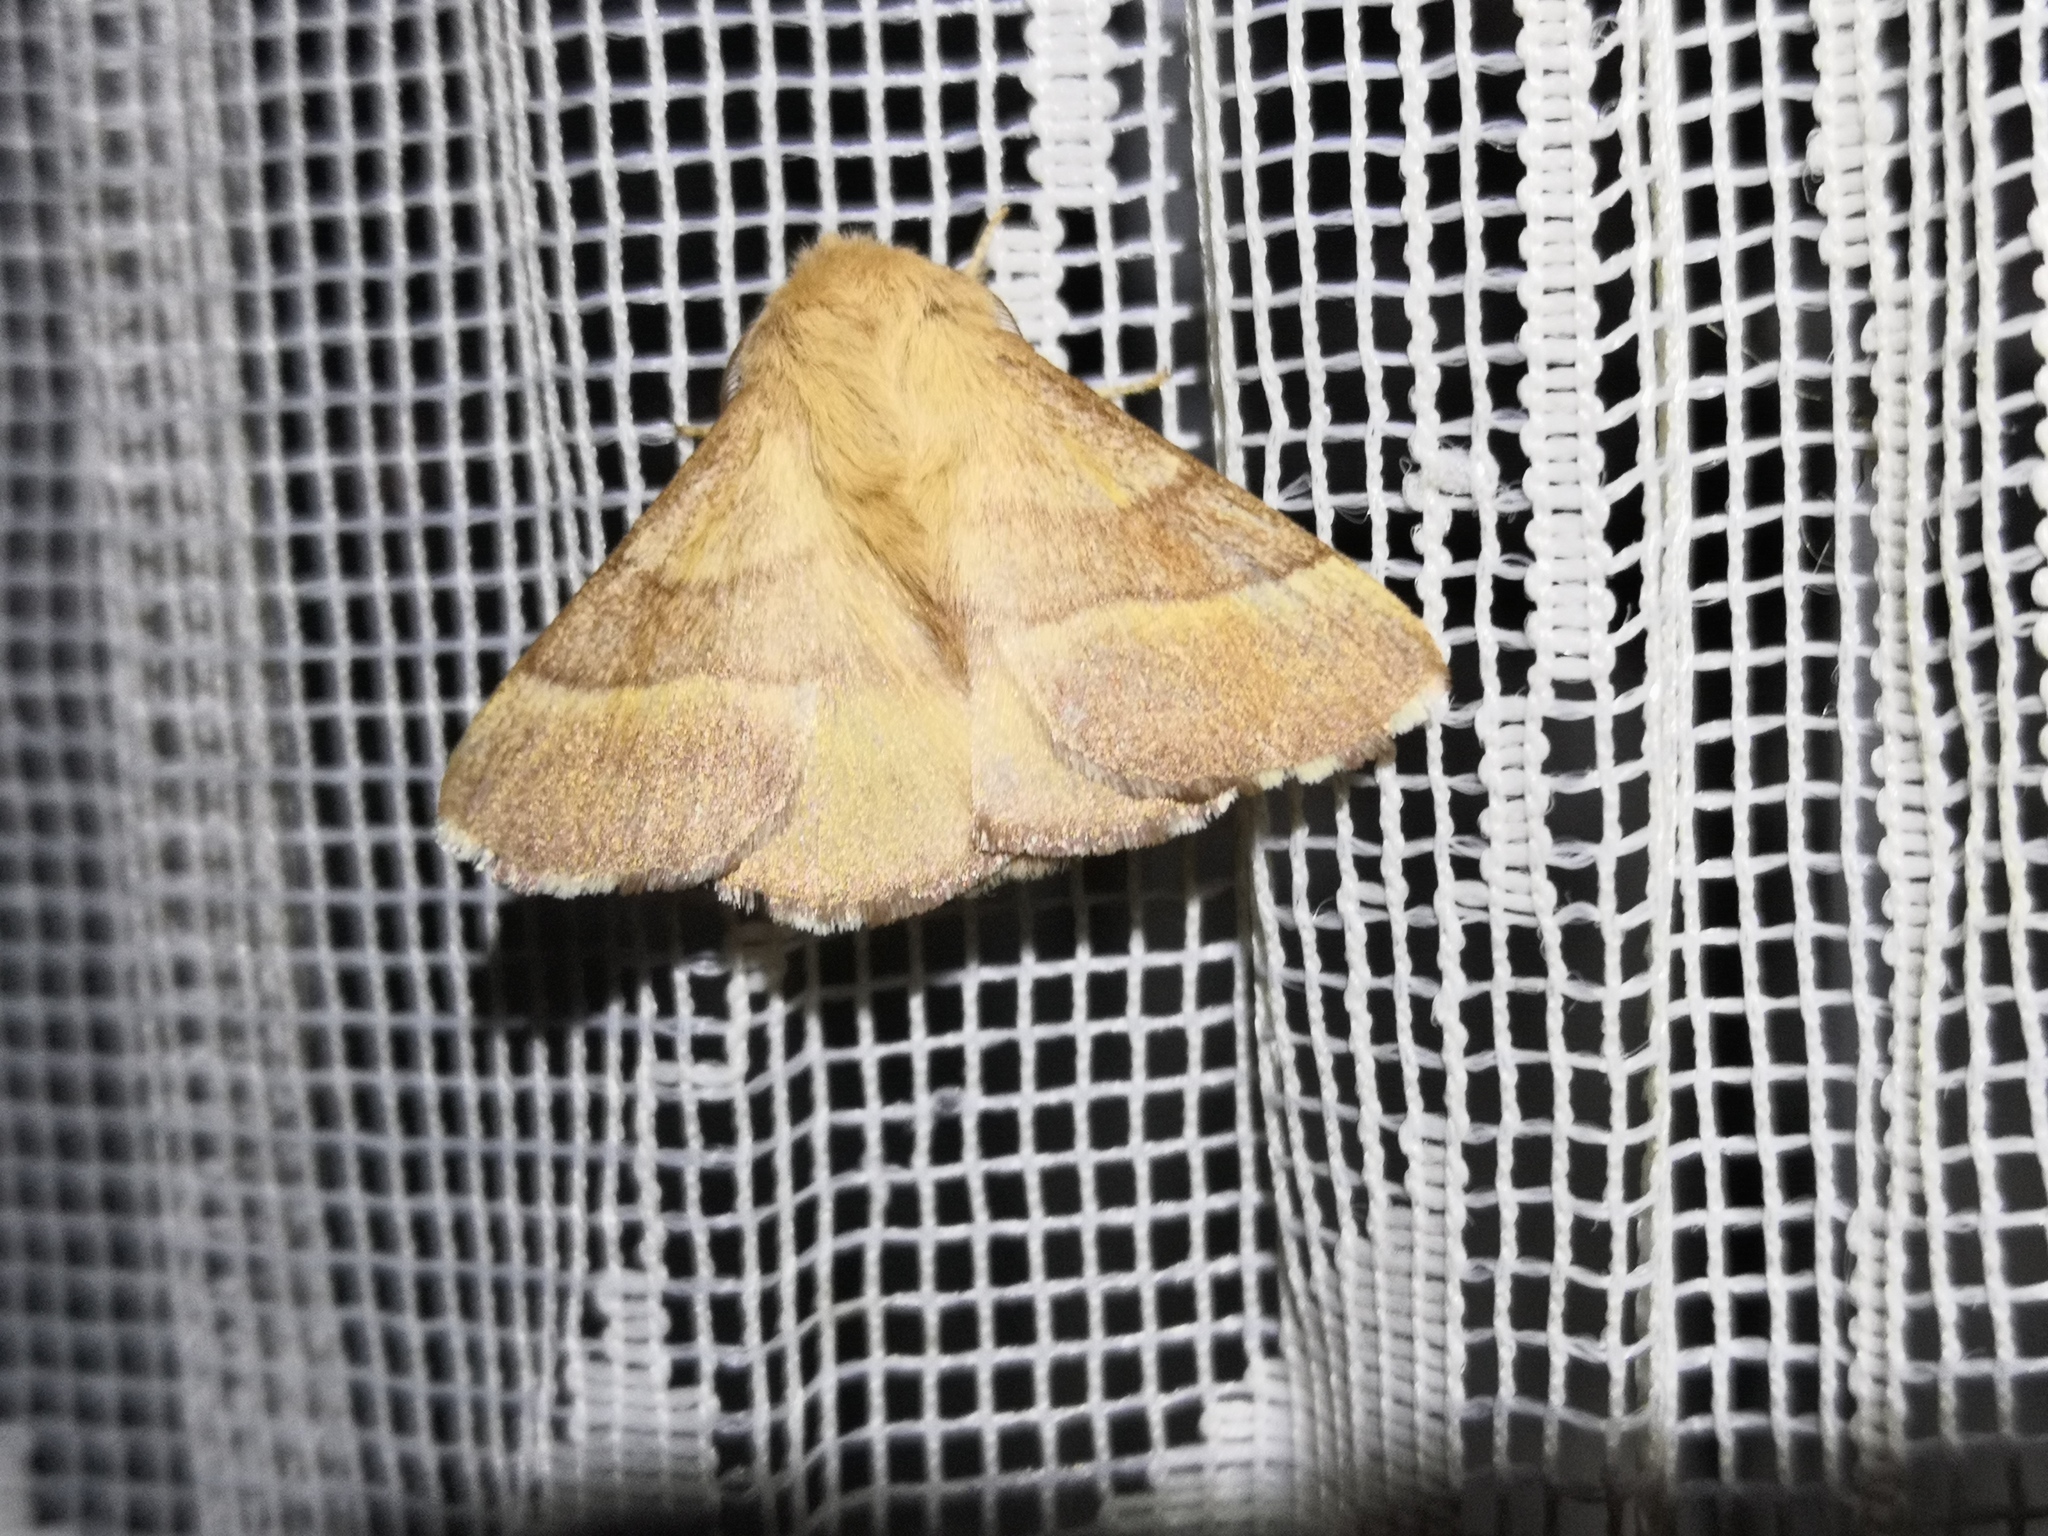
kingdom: Animalia
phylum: Arthropoda
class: Insecta
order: Lepidoptera
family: Lasiocampidae
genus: Malacosoma
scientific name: Malacosoma neustria
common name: The lackey
